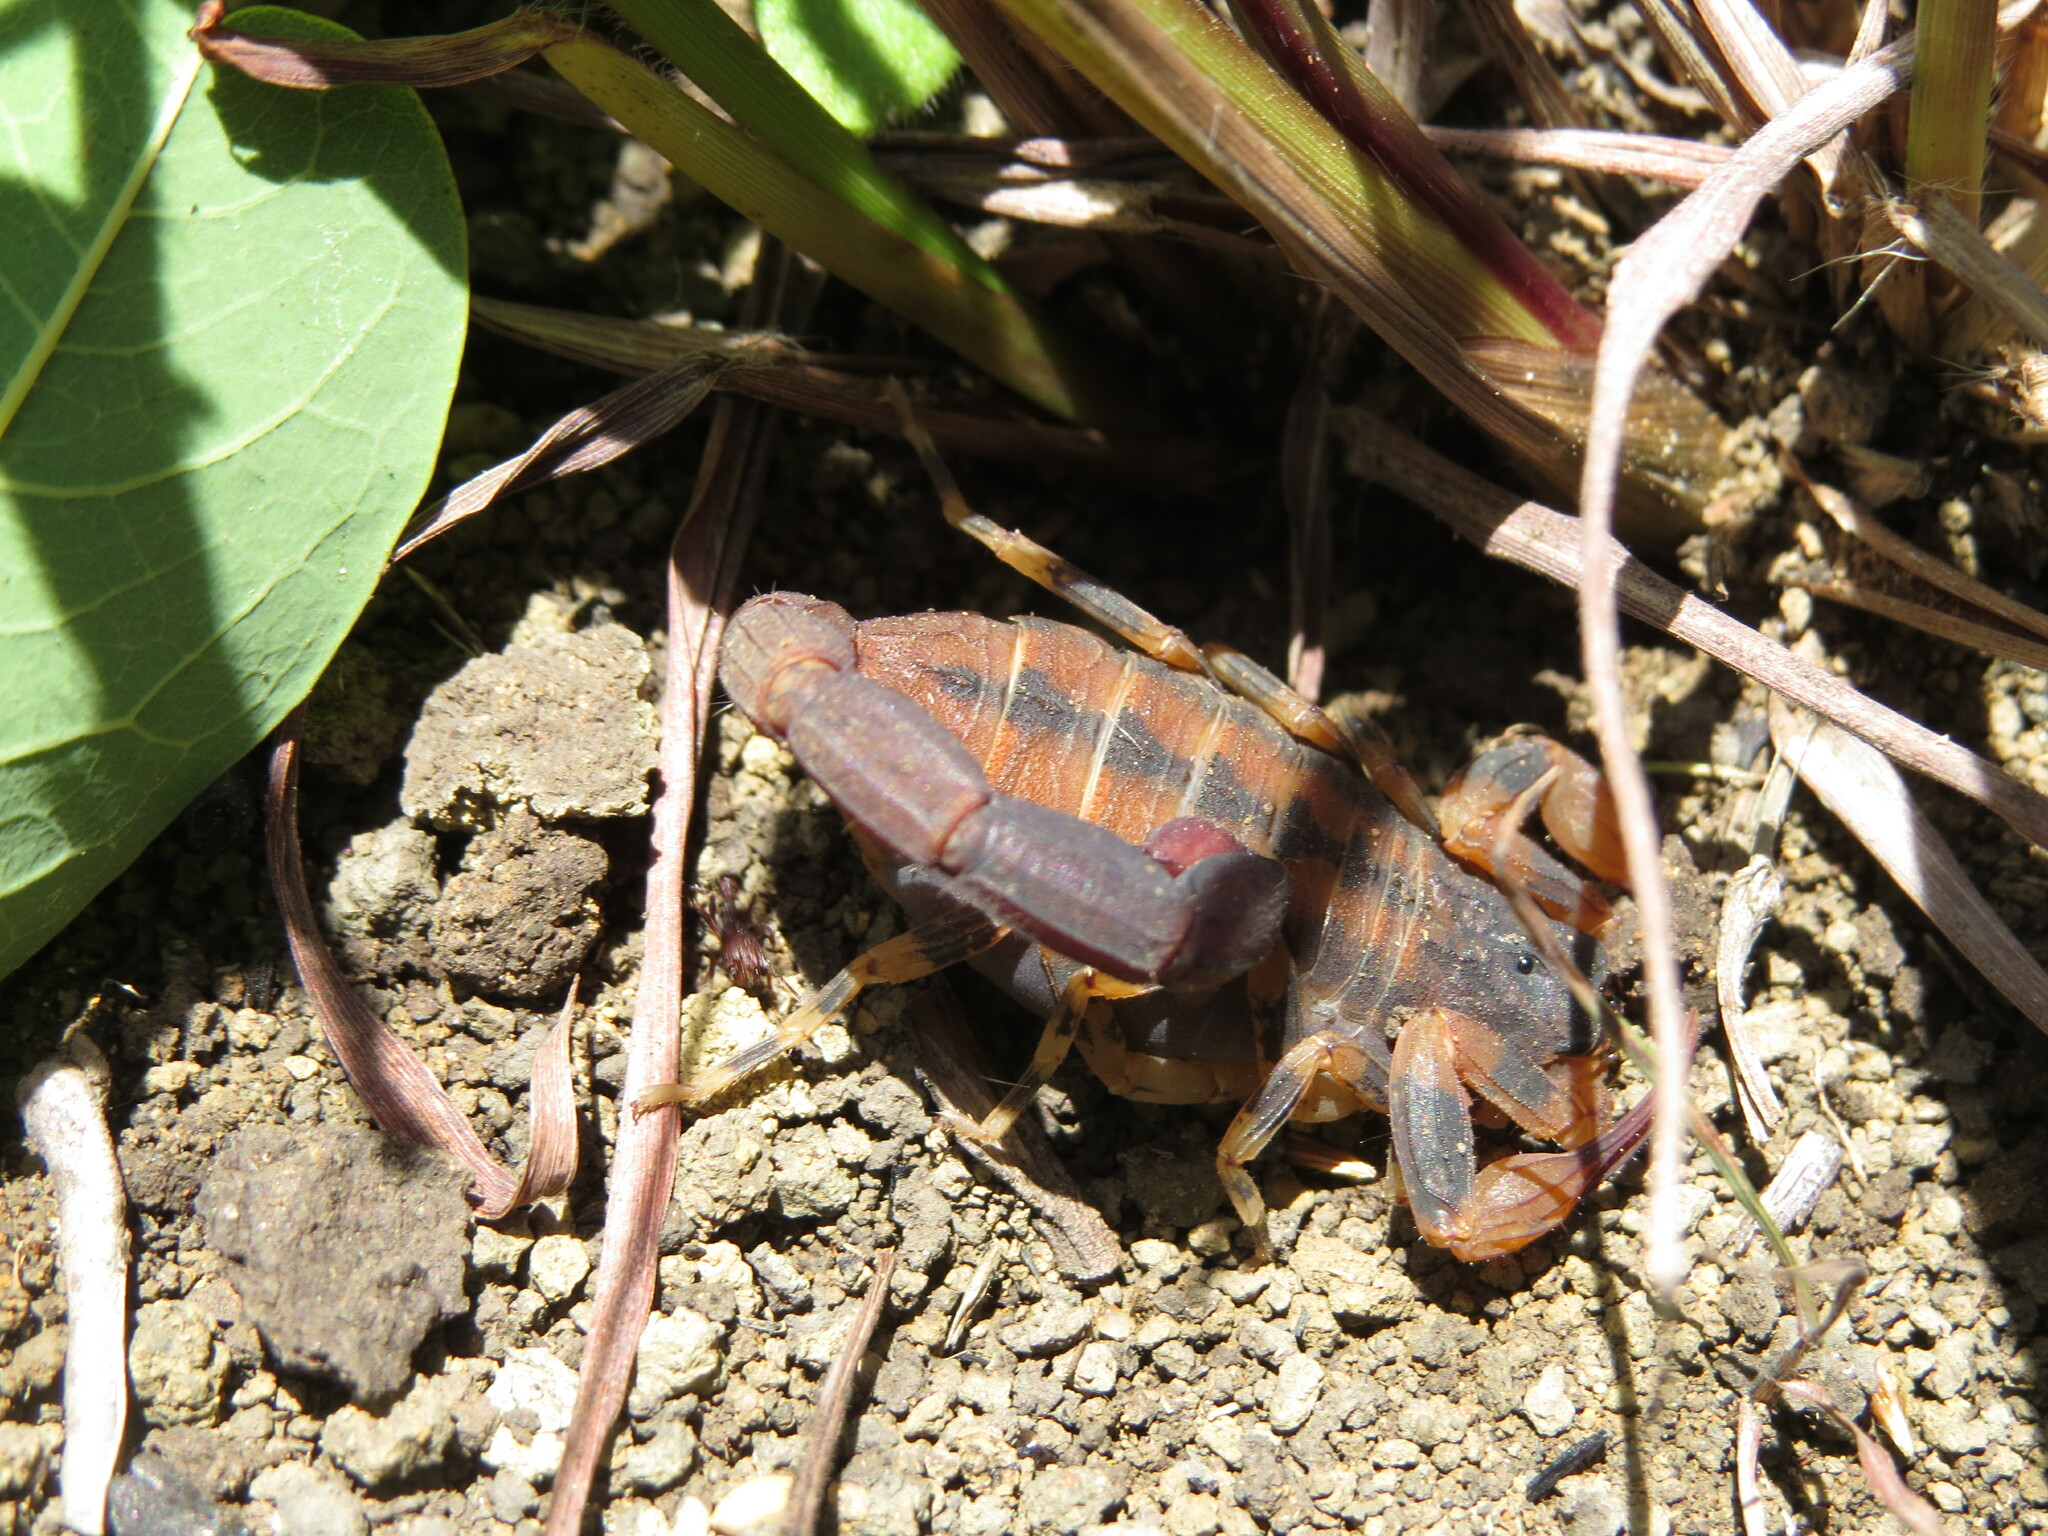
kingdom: Animalia
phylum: Arthropoda
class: Arachnida
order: Scorpiones
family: Buthidae
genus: Tityus
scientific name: Tityus fasciolatus
